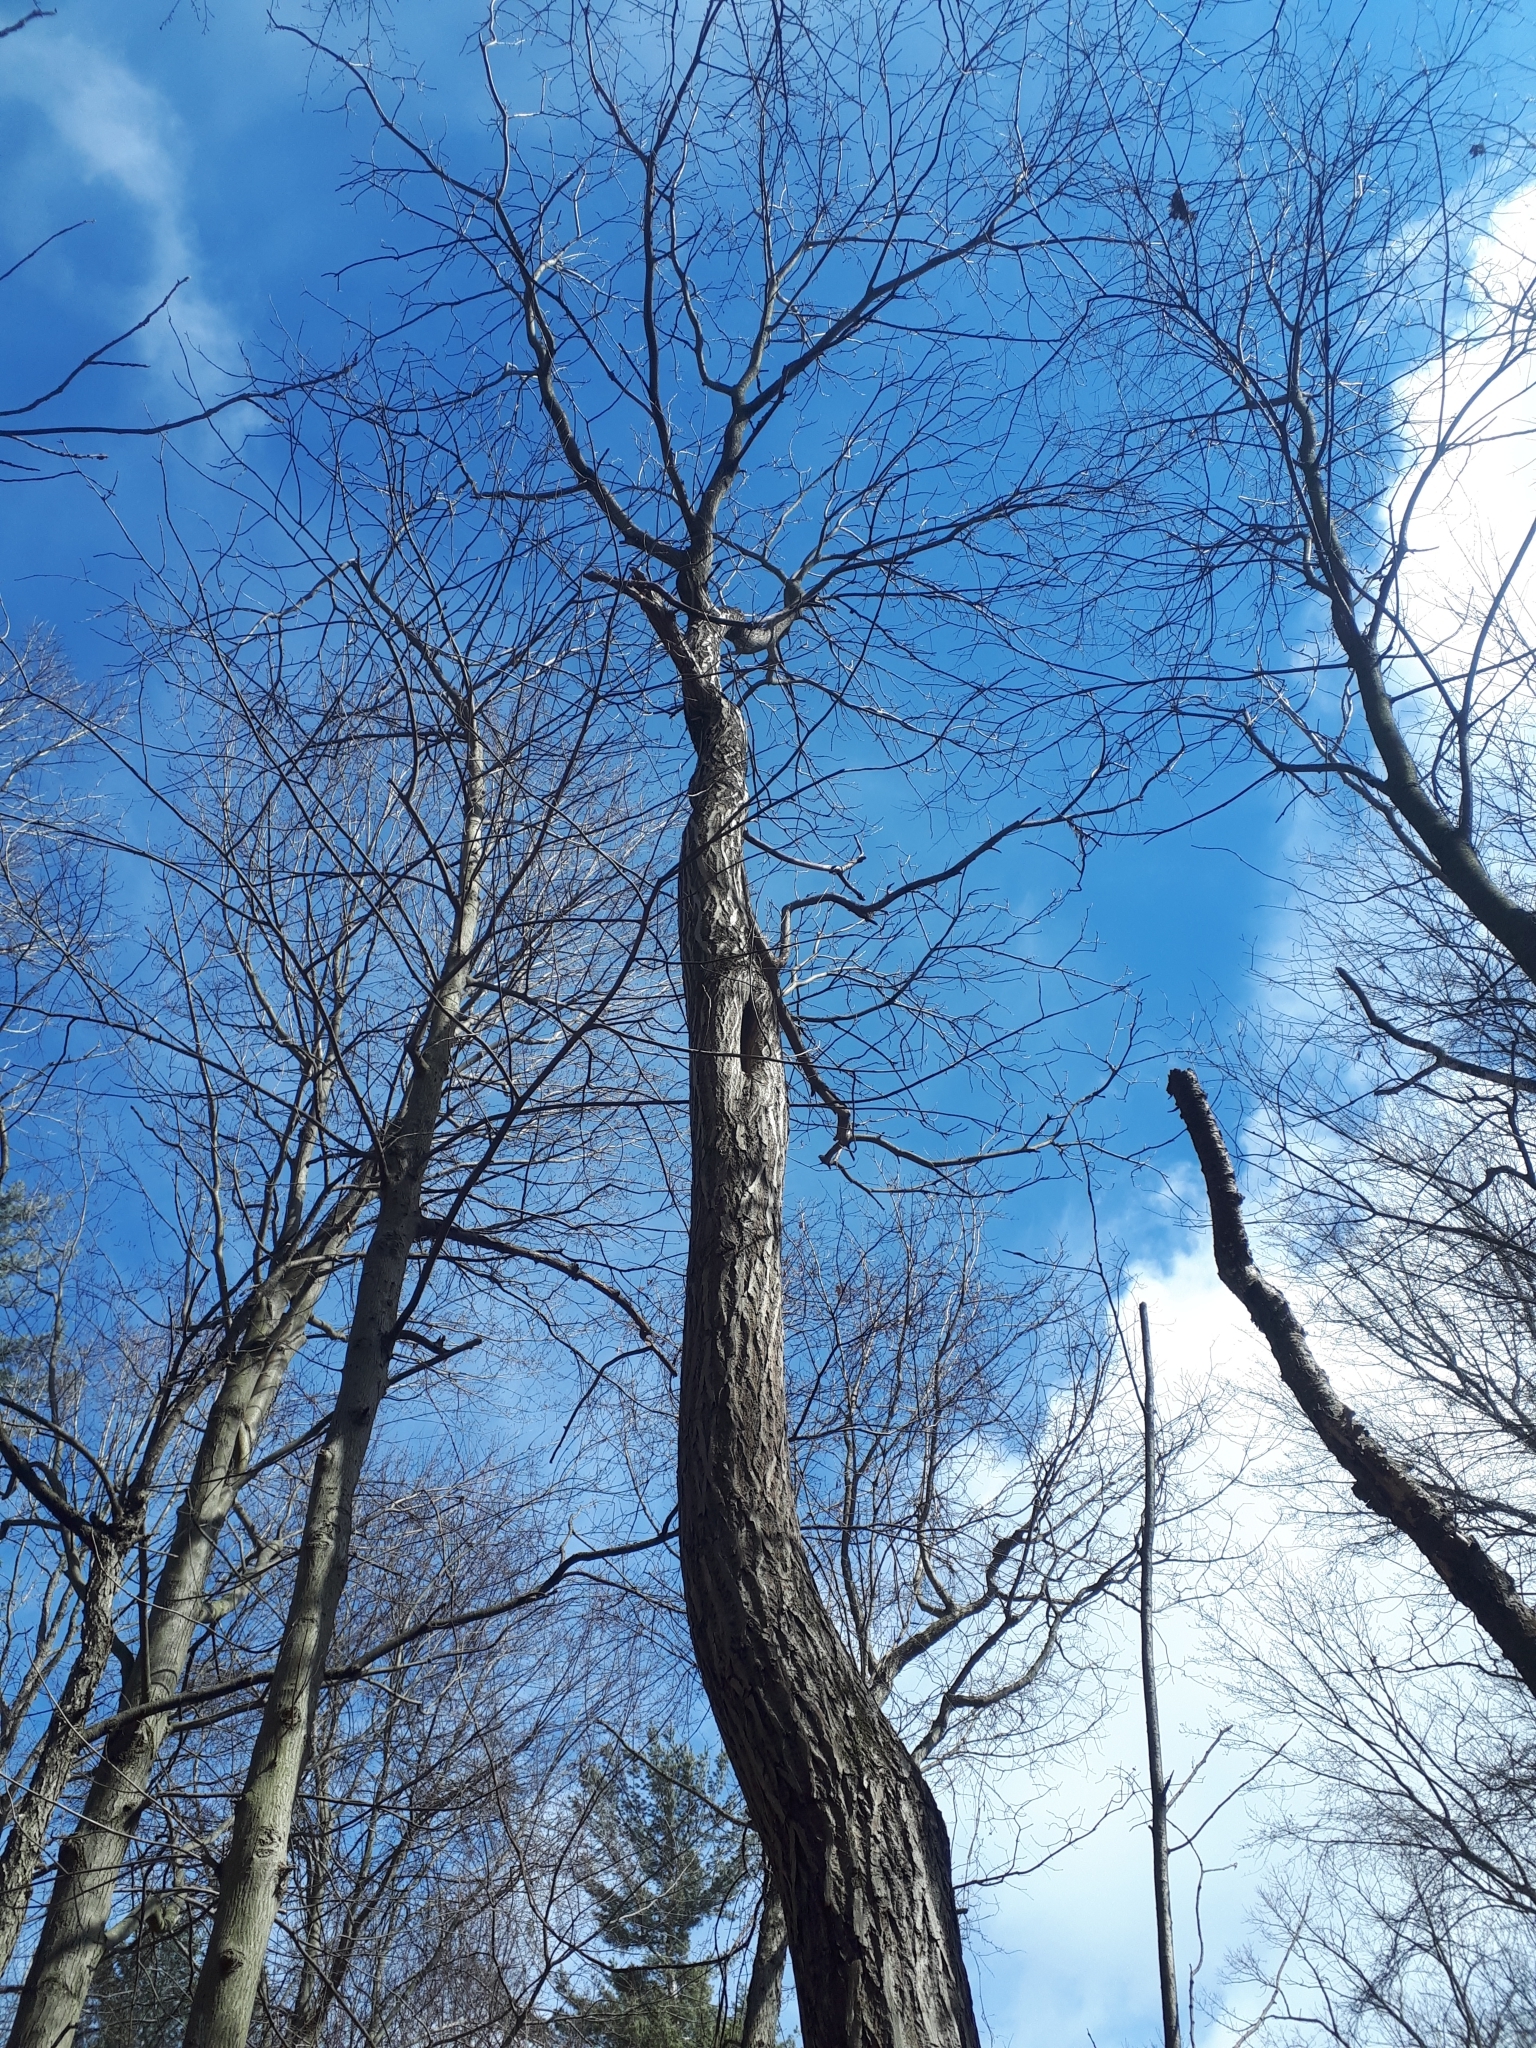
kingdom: Plantae
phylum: Tracheophyta
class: Magnoliopsida
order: Fagales
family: Juglandaceae
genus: Juglans
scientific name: Juglans cinerea
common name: Butternut
